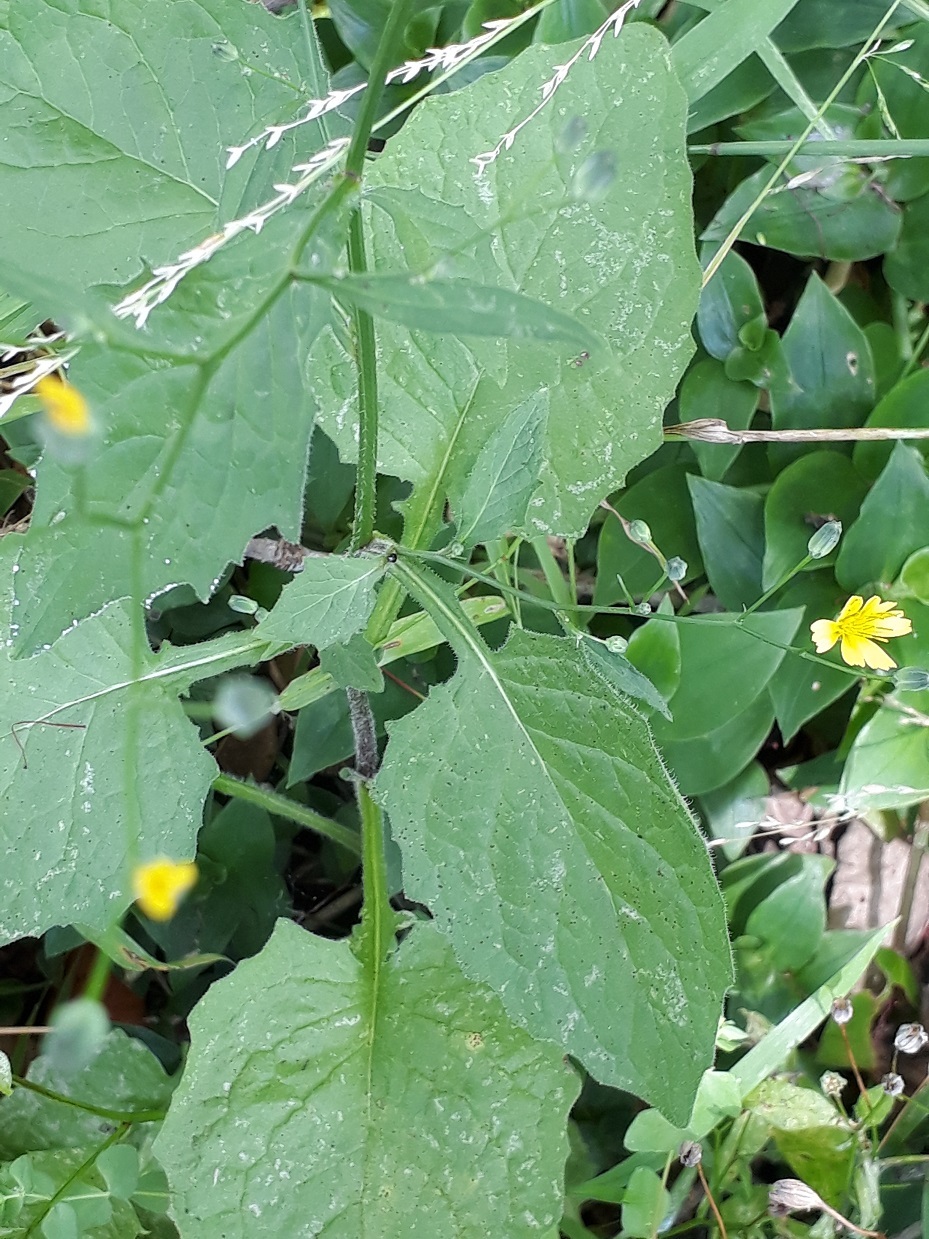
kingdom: Plantae
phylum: Tracheophyta
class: Magnoliopsida
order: Asterales
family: Asteraceae
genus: Lapsana
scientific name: Lapsana communis
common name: Nipplewort
